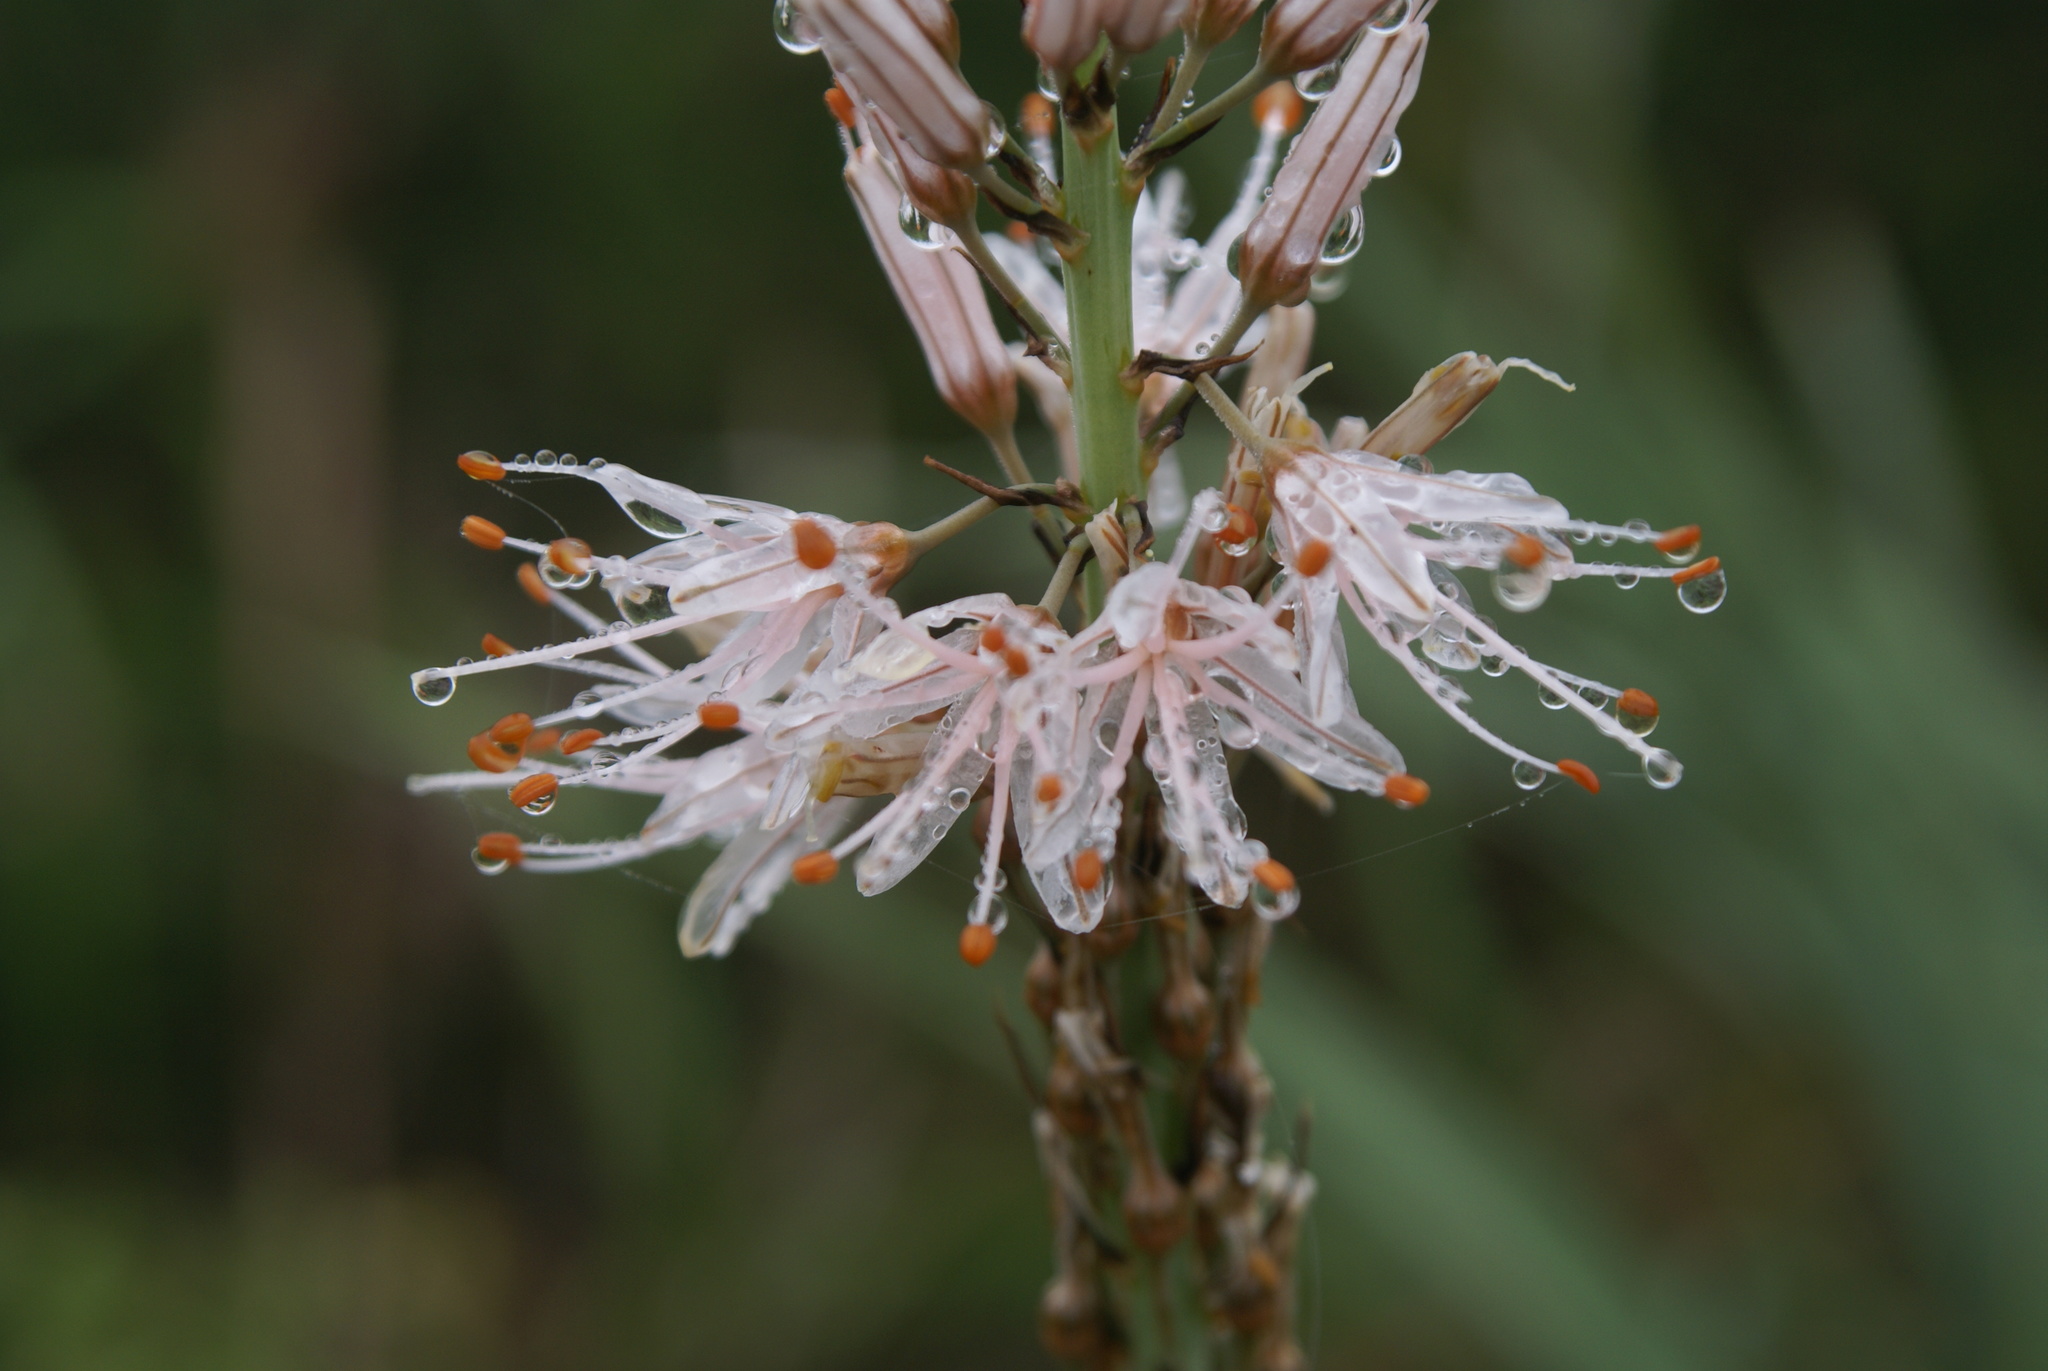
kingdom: Plantae
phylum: Tracheophyta
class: Liliopsida
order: Asparagales
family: Asphodelaceae
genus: Asphodelus
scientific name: Asphodelus albus
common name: White asphodel
